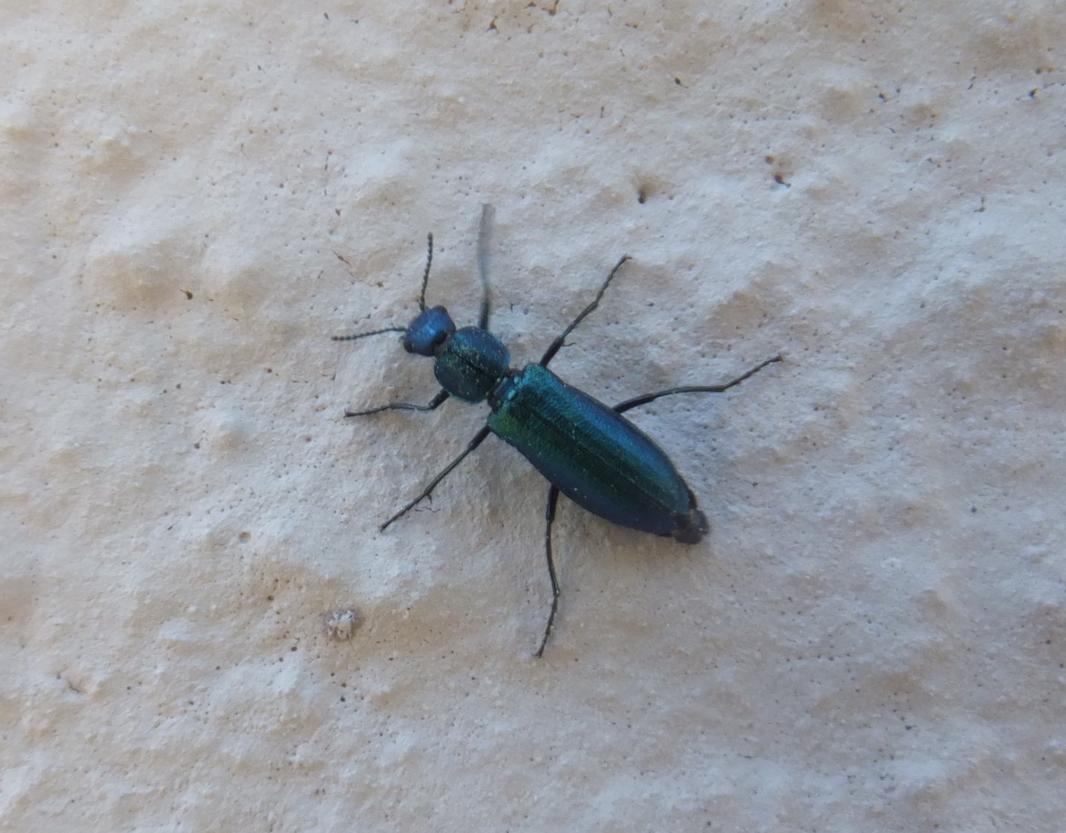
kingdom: Animalia
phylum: Arthropoda
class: Insecta
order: Coleoptera
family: Dasytidae
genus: Psilothrix
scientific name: Psilothrix viridicoerulea
